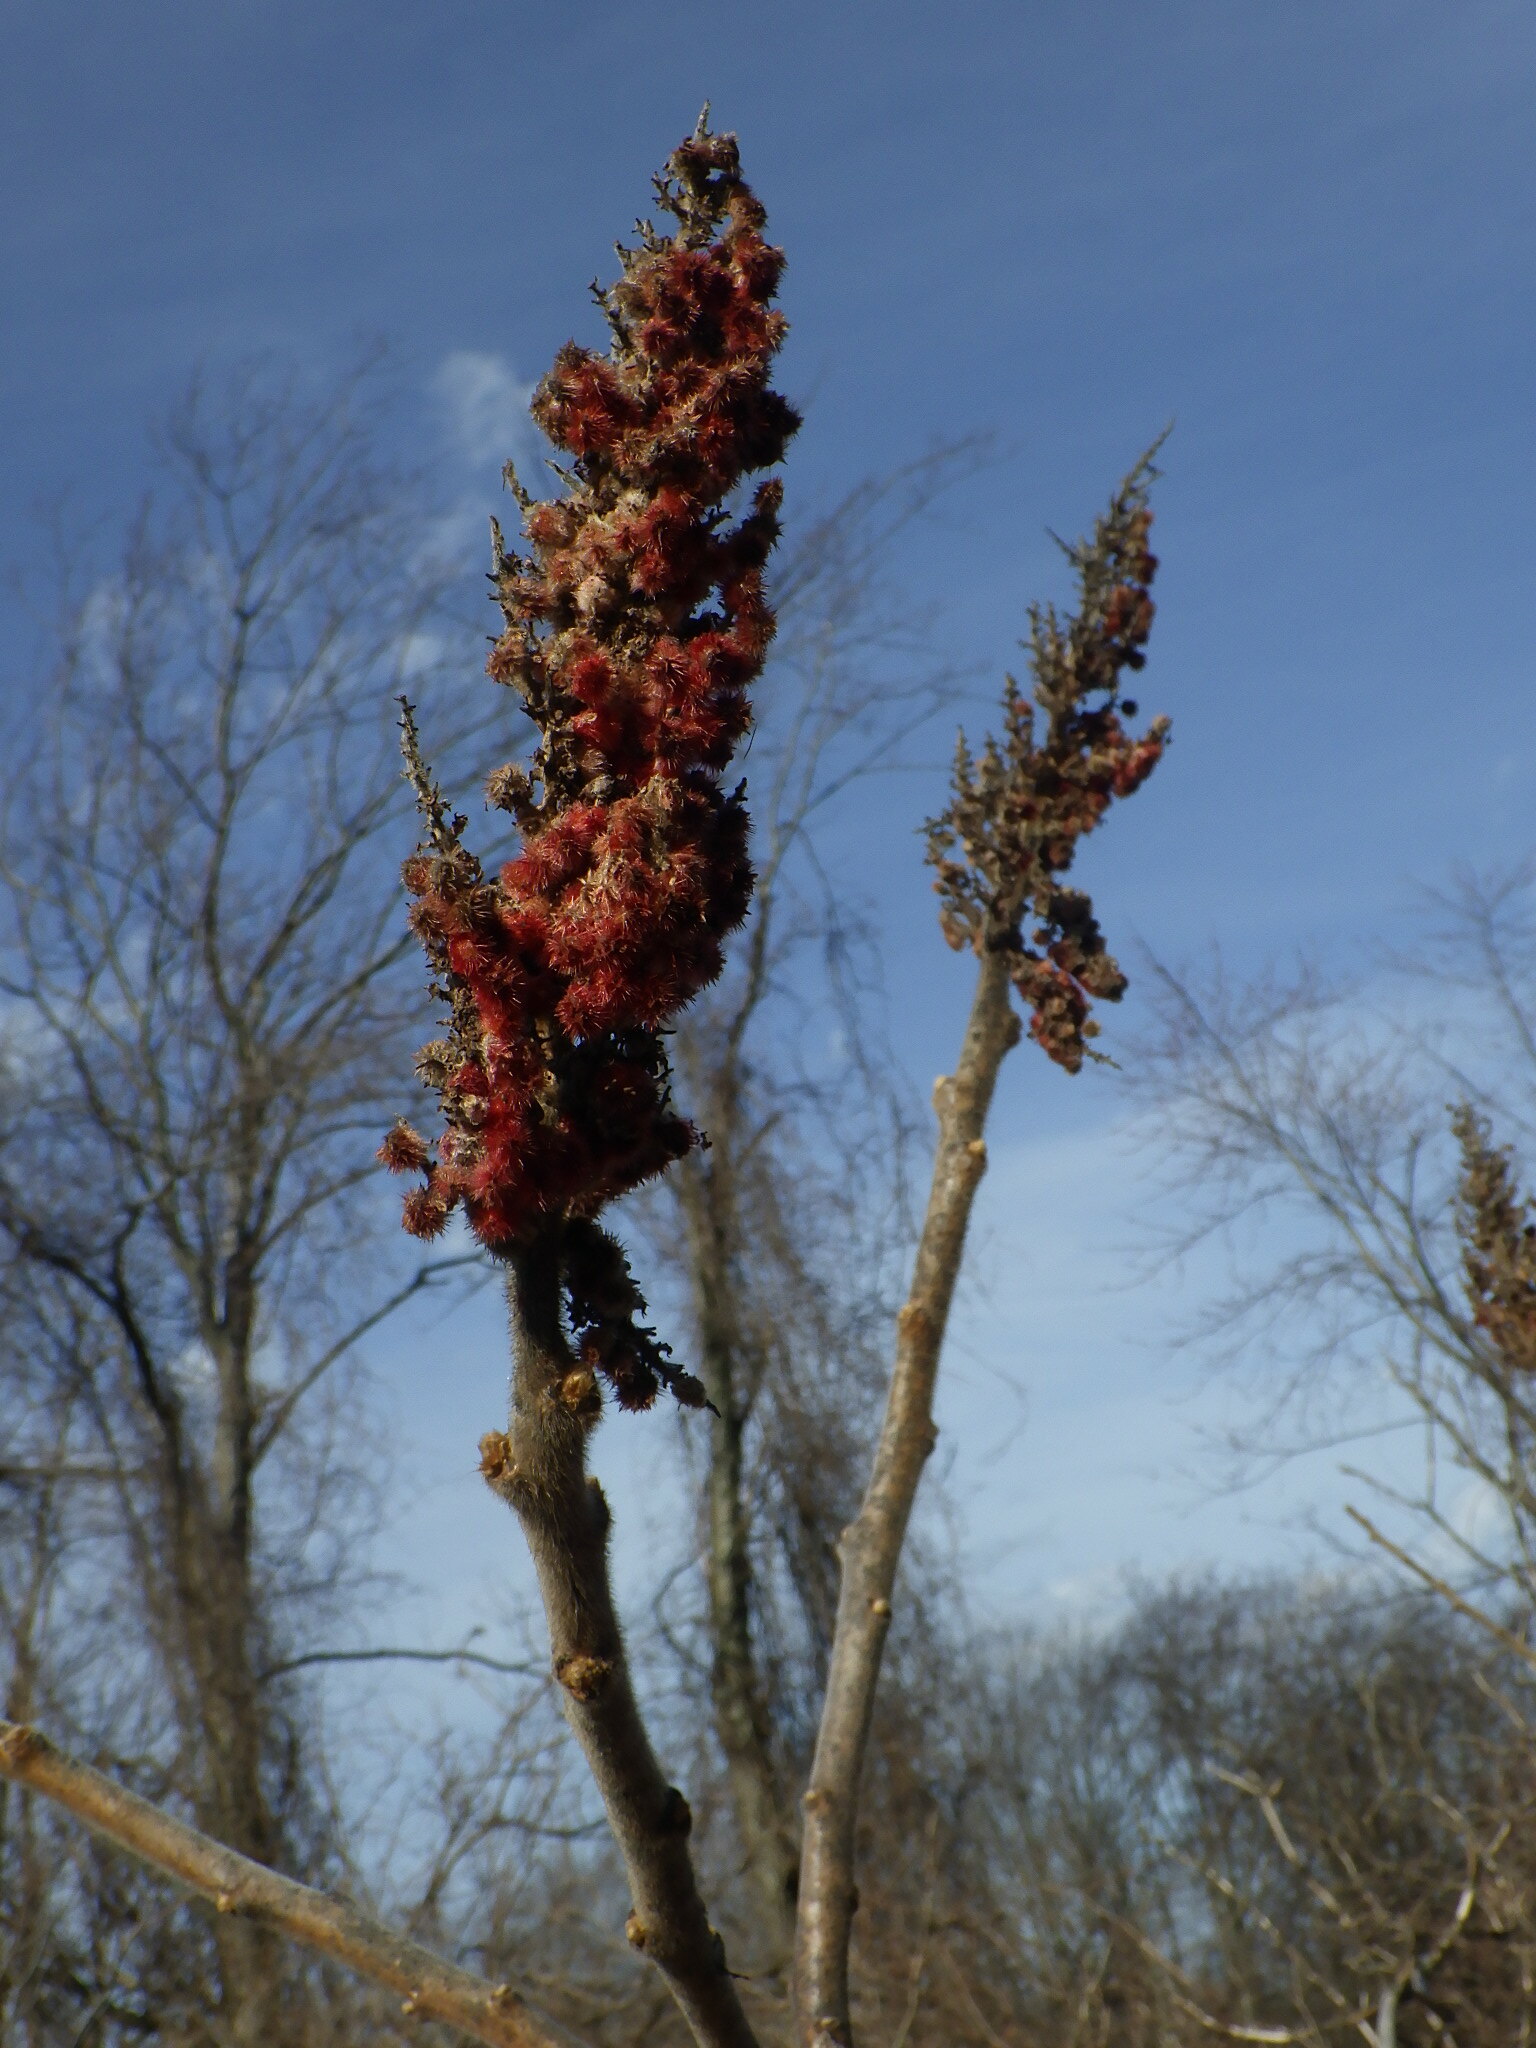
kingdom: Plantae
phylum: Tracheophyta
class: Magnoliopsida
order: Sapindales
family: Anacardiaceae
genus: Rhus
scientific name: Rhus typhina
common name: Staghorn sumac
